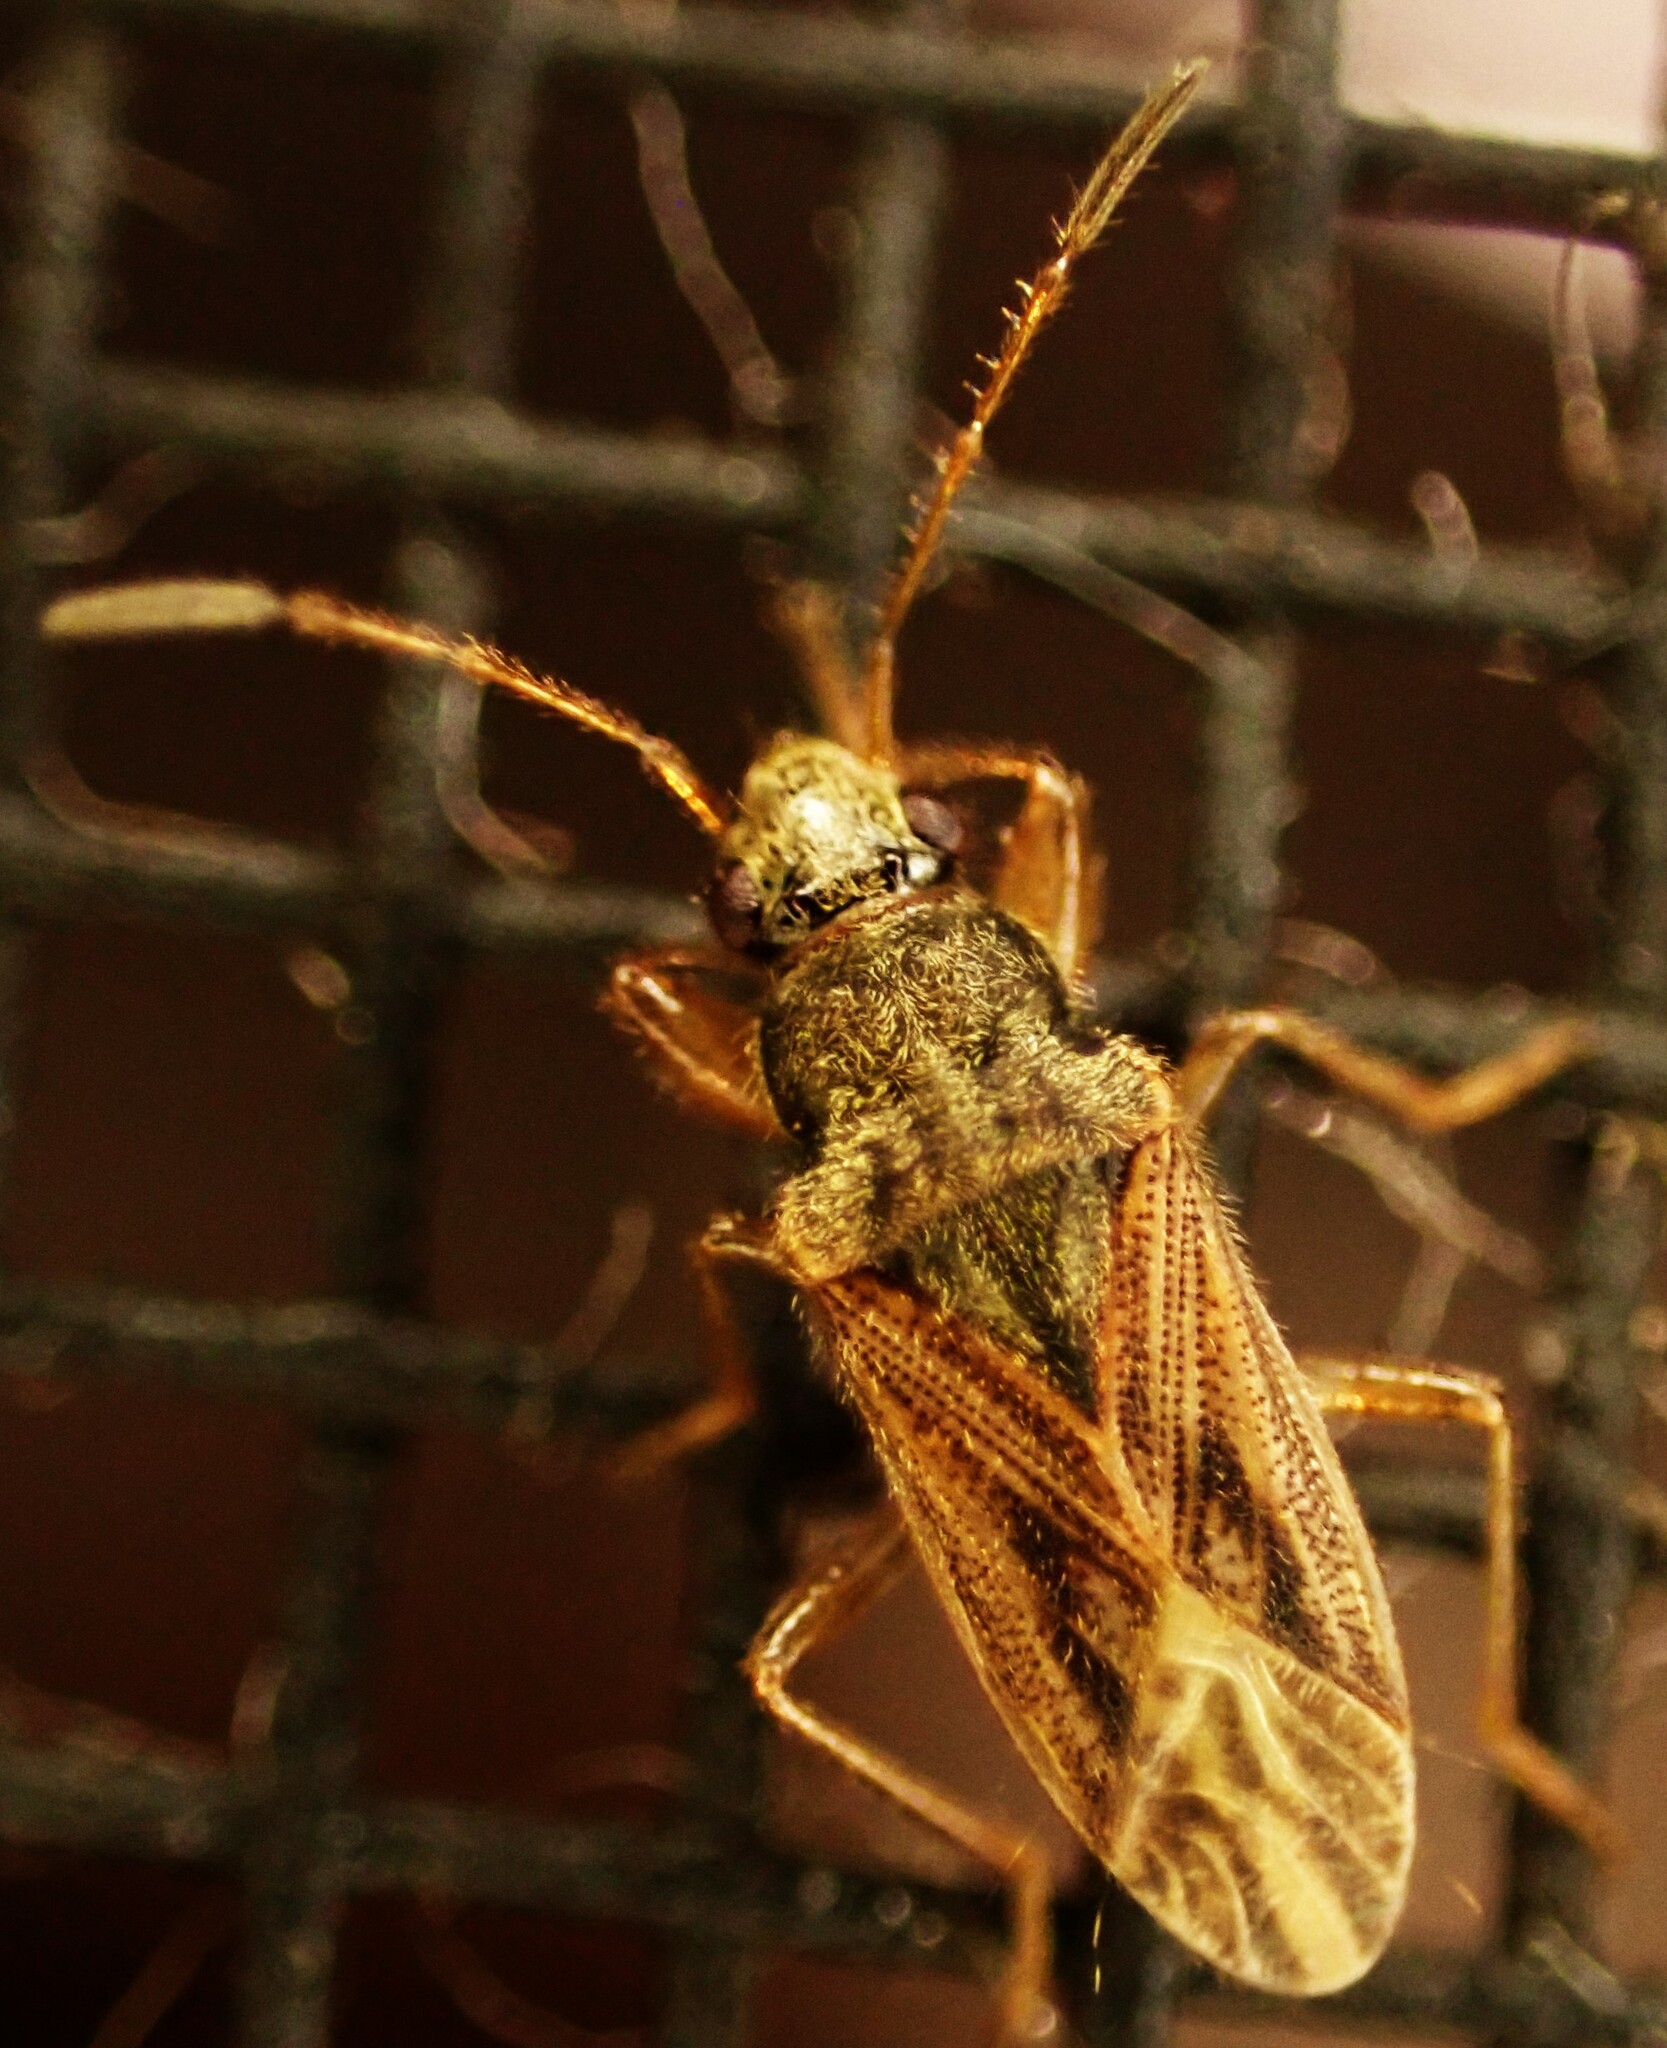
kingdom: Animalia
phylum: Arthropoda
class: Insecta
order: Hemiptera
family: Rhyparochromidae
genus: Remaudiereana
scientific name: Remaudiereana puberulus
